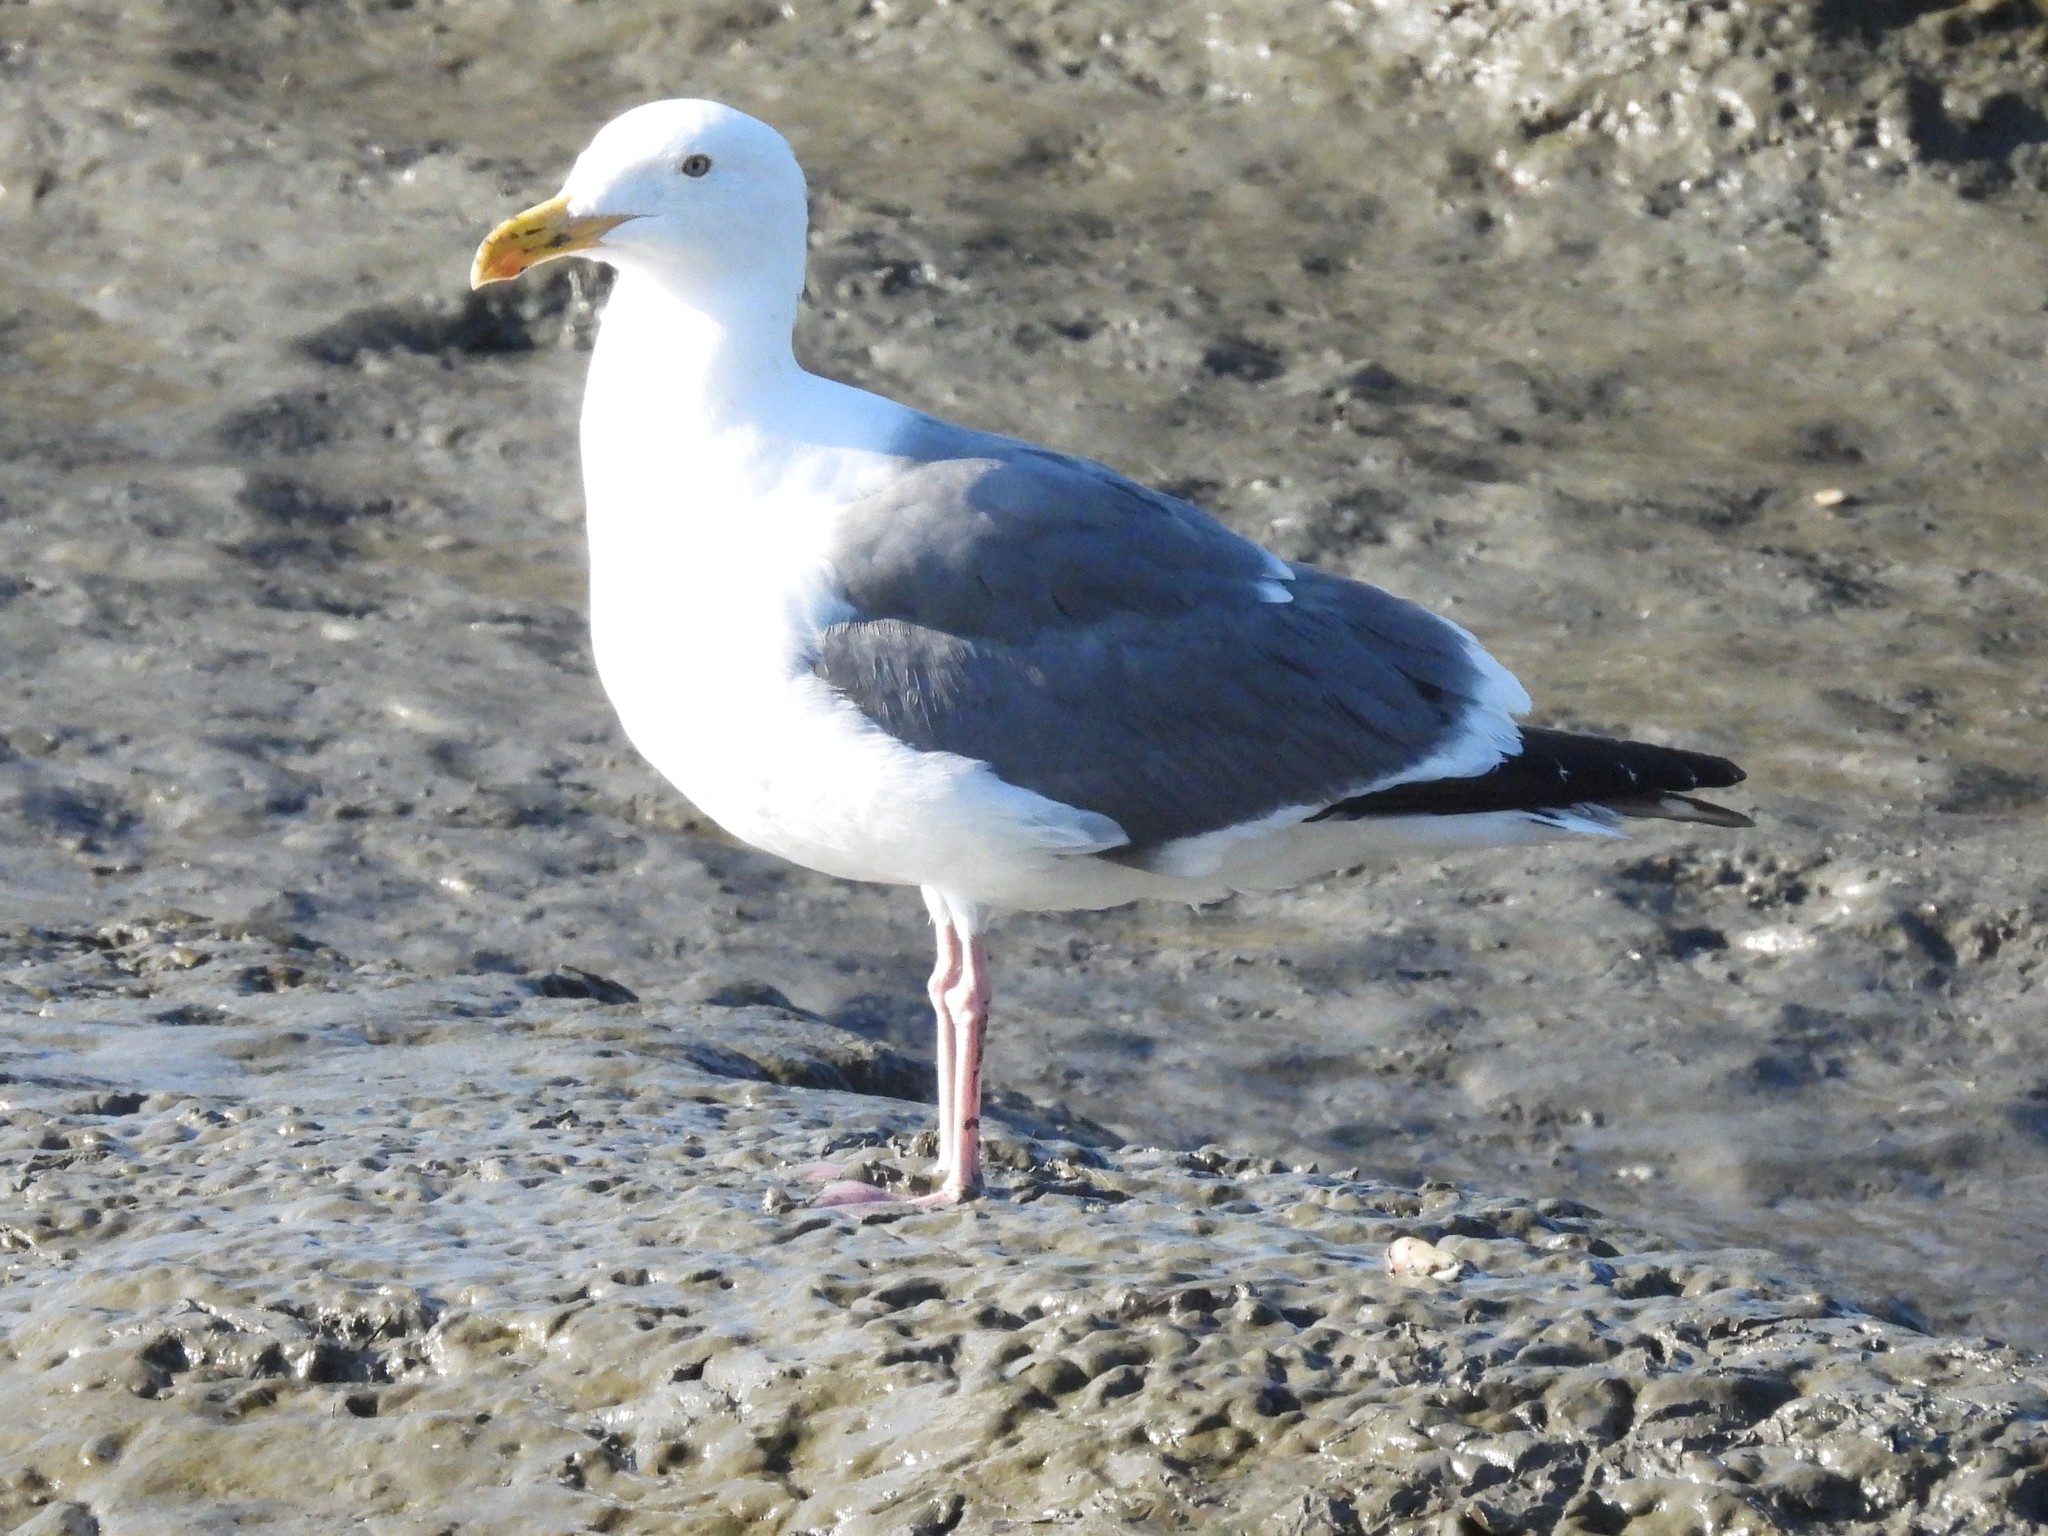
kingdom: Animalia
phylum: Chordata
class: Aves
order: Charadriiformes
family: Laridae
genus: Larus
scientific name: Larus occidentalis
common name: Western gull
